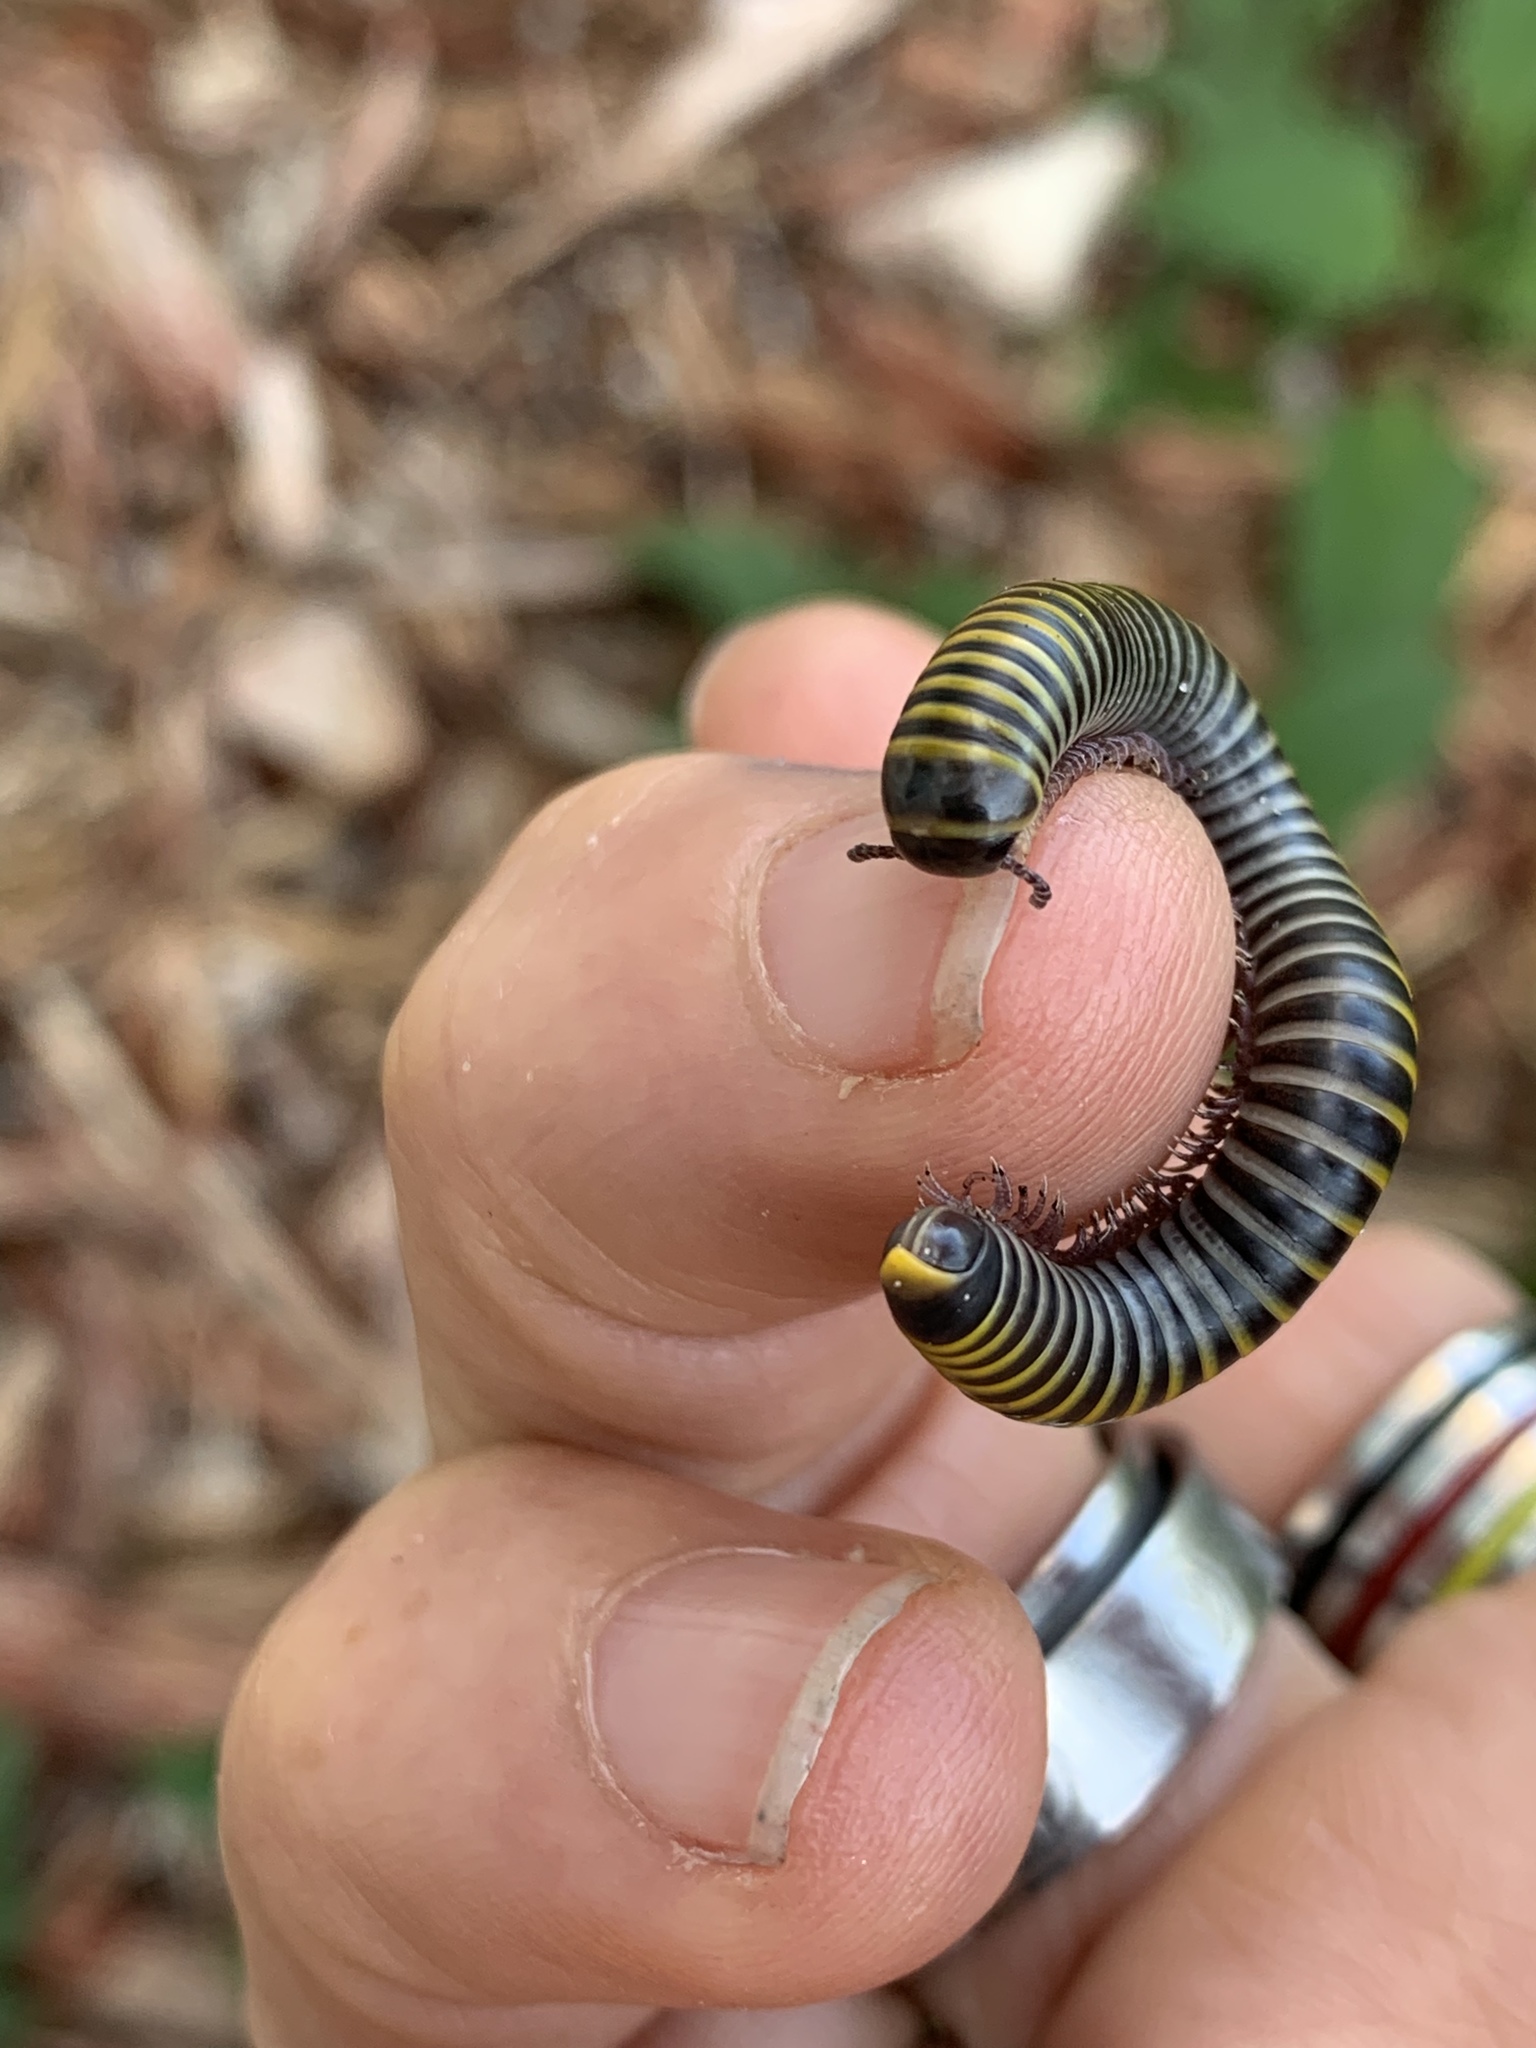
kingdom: Animalia
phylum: Arthropoda
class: Diplopoda
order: Spirobolida
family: Rhinocricidae
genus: Anadenobolus
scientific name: Anadenobolus monilicornis
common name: Caribbean millipede
